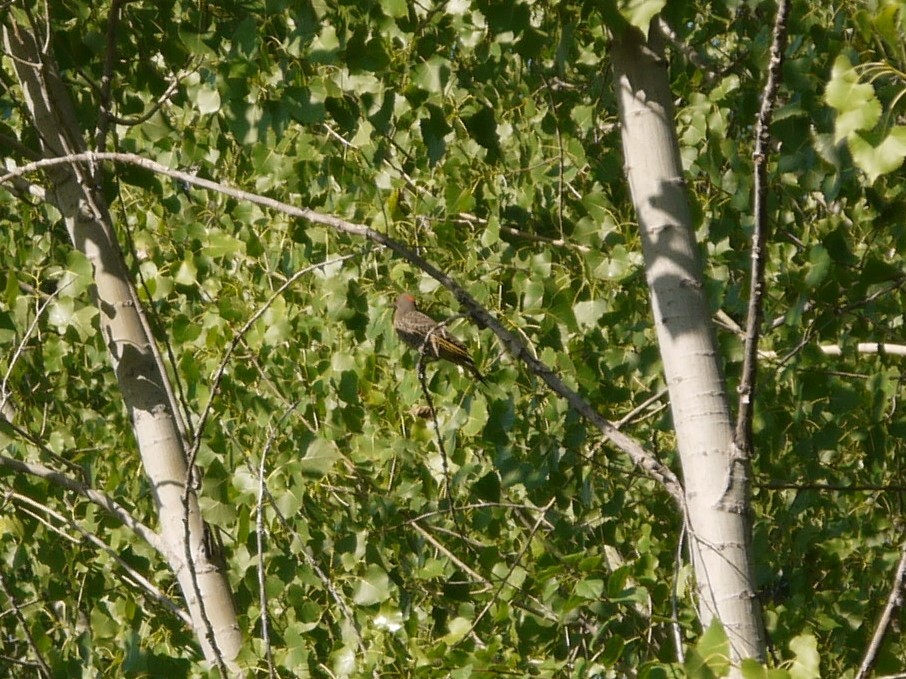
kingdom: Animalia
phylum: Chordata
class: Aves
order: Piciformes
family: Picidae
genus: Colaptes
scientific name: Colaptes auratus
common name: Northern flicker
